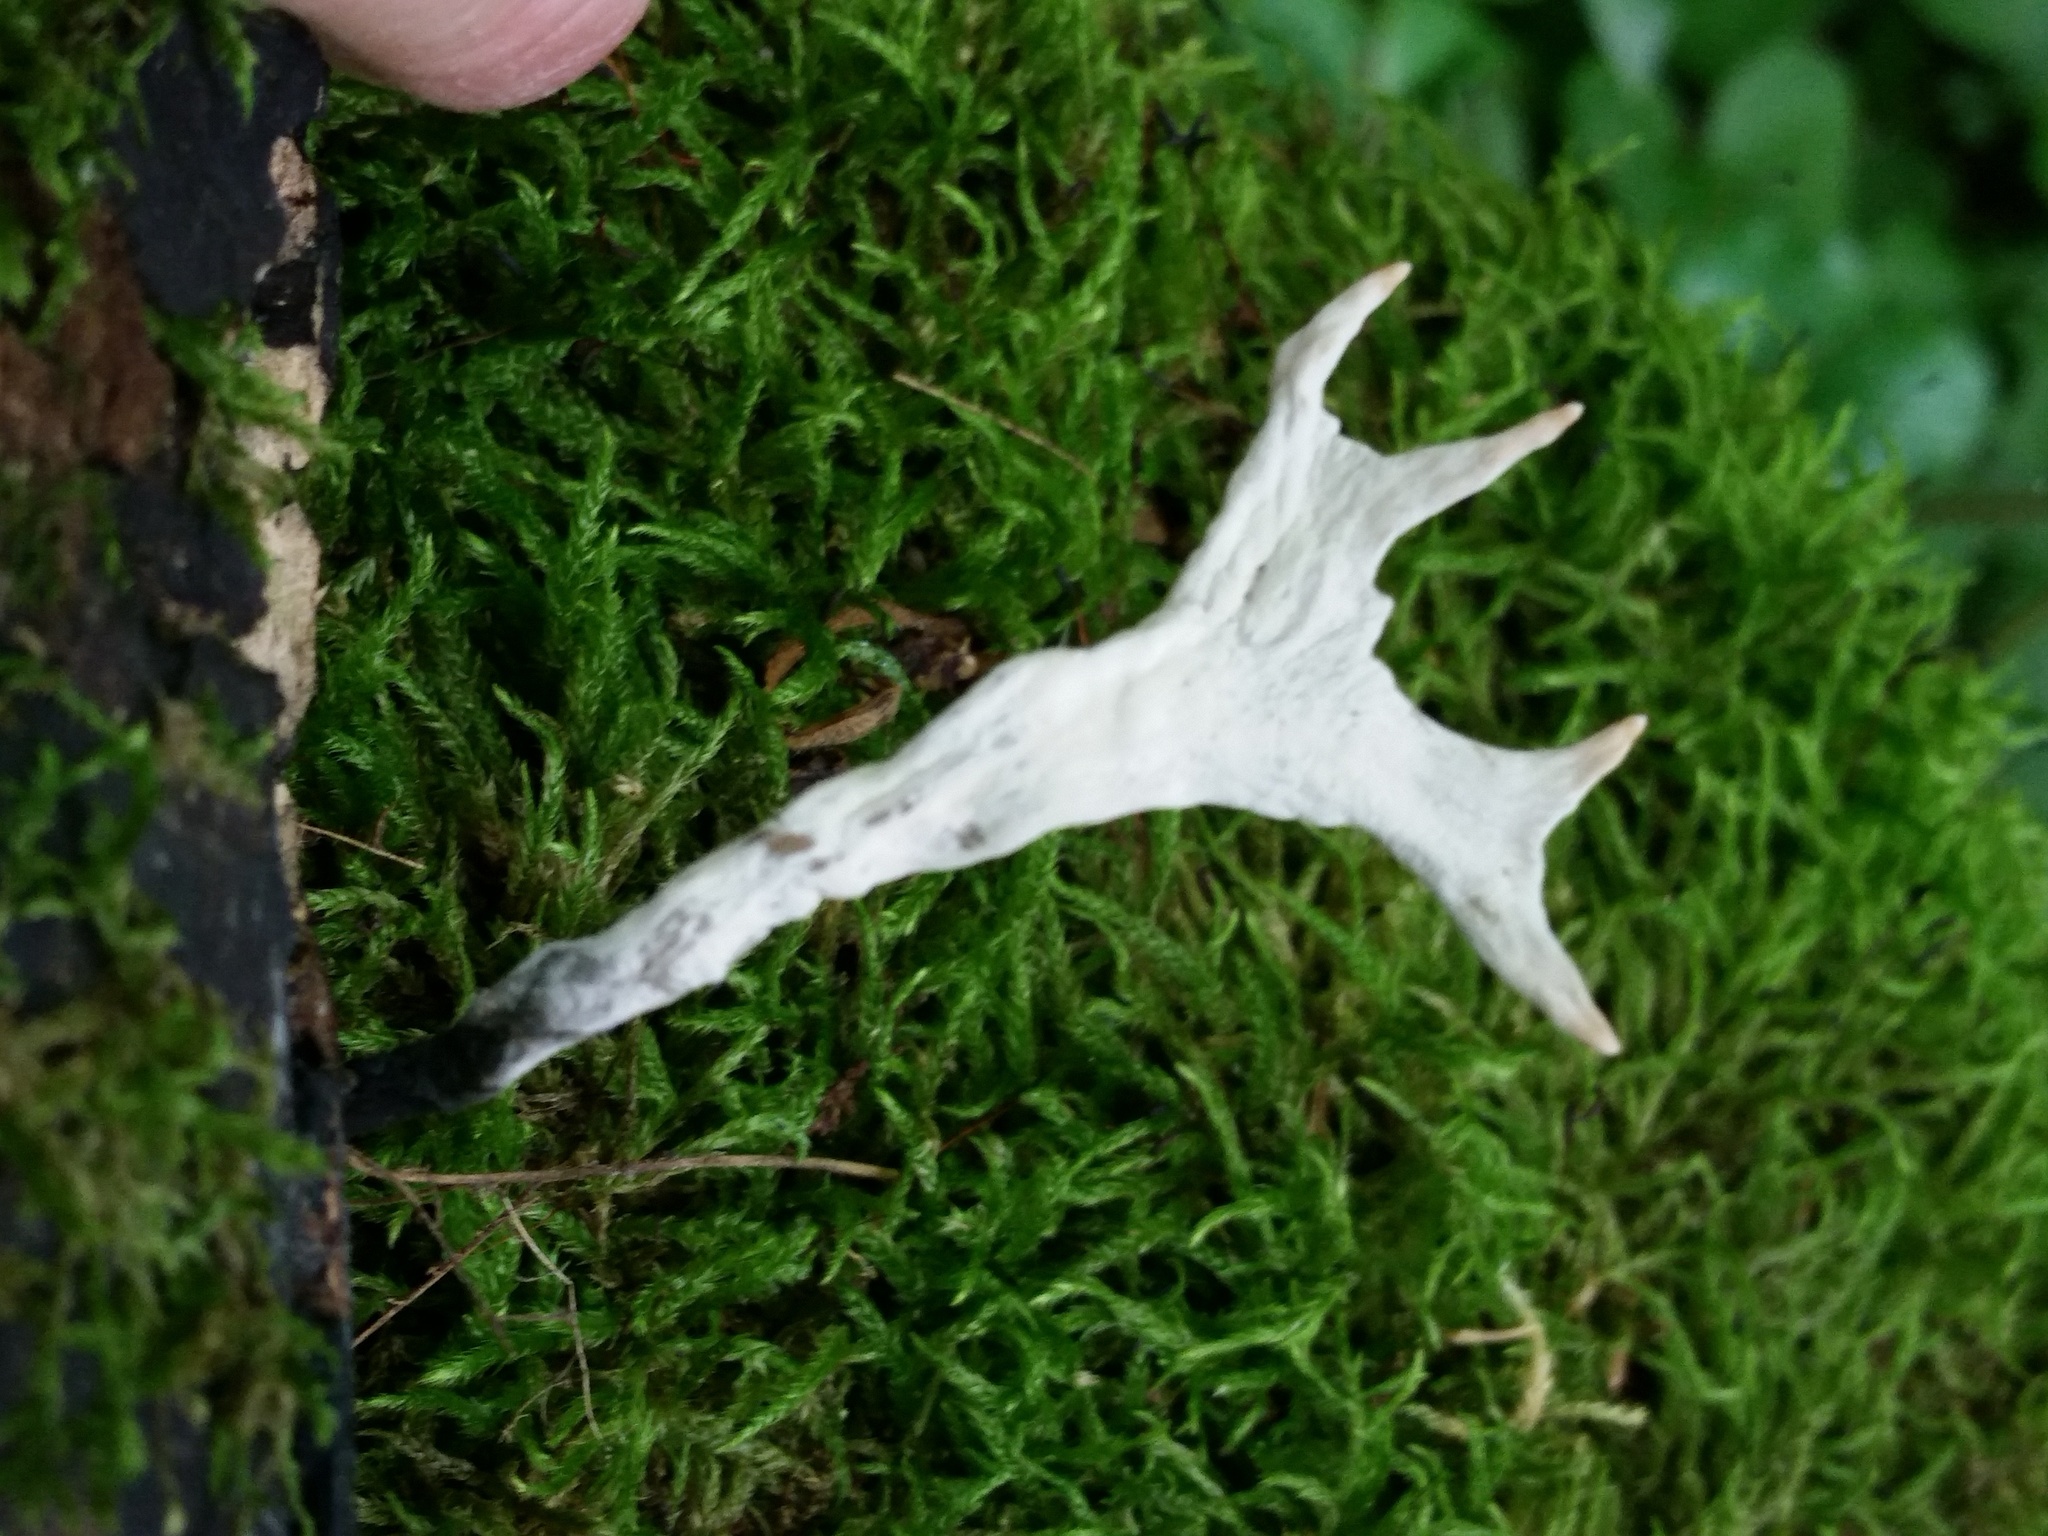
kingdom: Fungi
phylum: Ascomycota
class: Sordariomycetes
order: Xylariales
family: Xylariaceae
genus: Xylaria
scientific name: Xylaria hypoxylon
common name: Candle-snuff fungus
